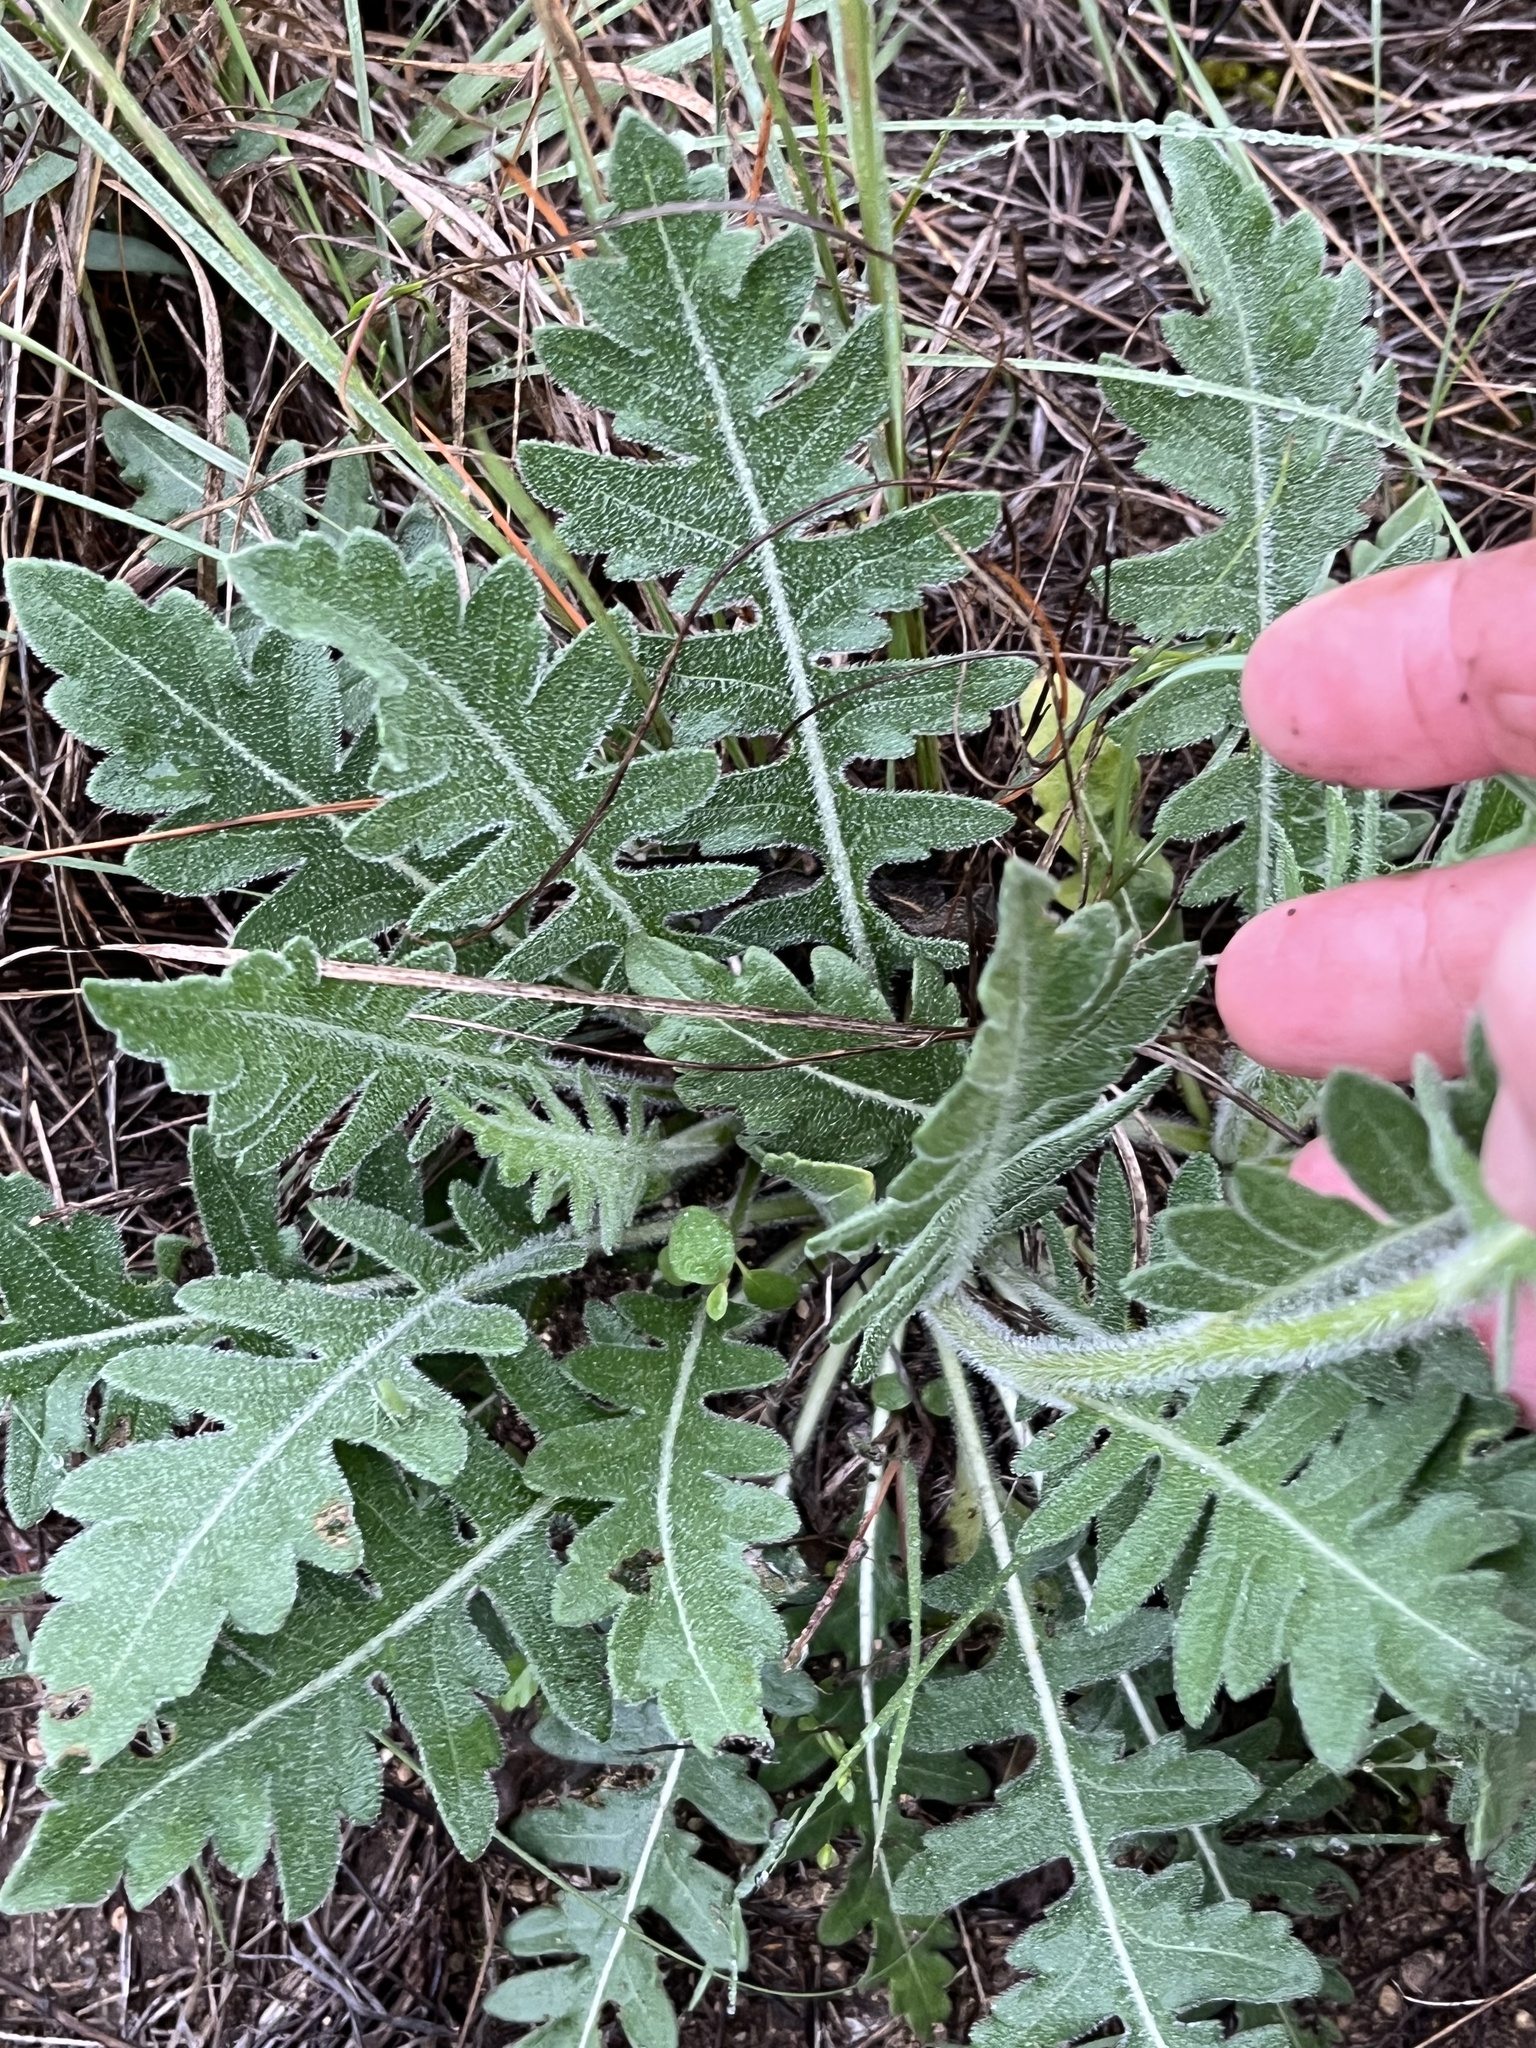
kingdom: Plantae
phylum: Tracheophyta
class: Magnoliopsida
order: Asterales
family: Asteraceae
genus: Engelmannia
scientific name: Engelmannia peristenia
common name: Engelmann's daisy
